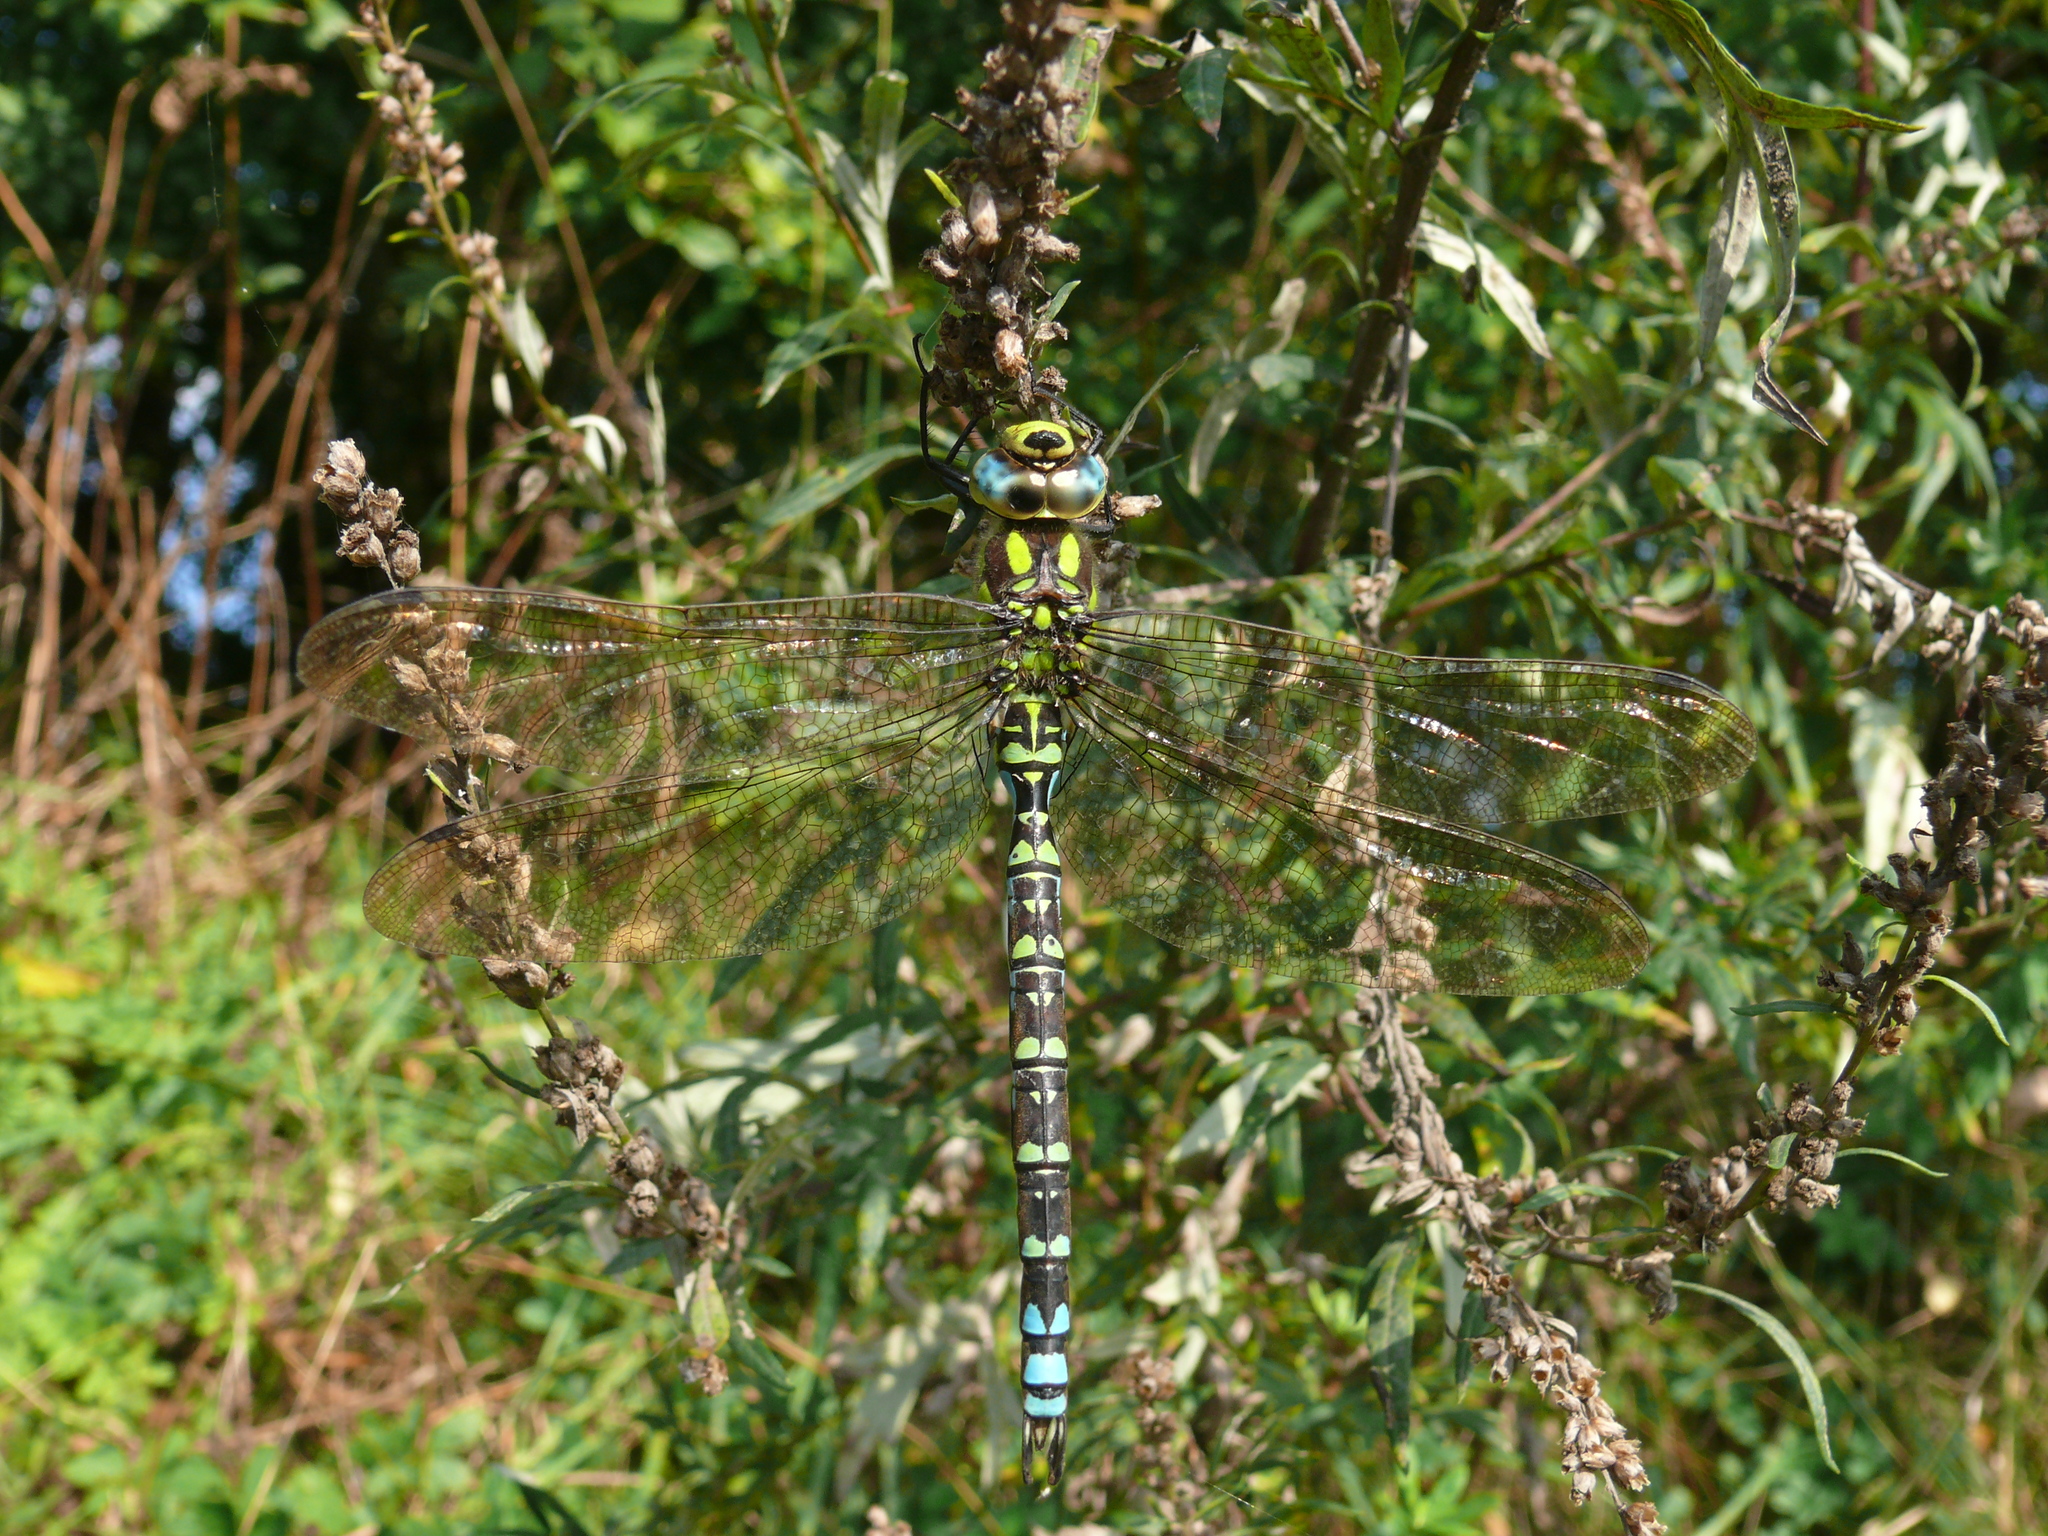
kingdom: Animalia
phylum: Arthropoda
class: Insecta
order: Odonata
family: Aeshnidae
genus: Aeshna
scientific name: Aeshna cyanea
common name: Southern hawker
